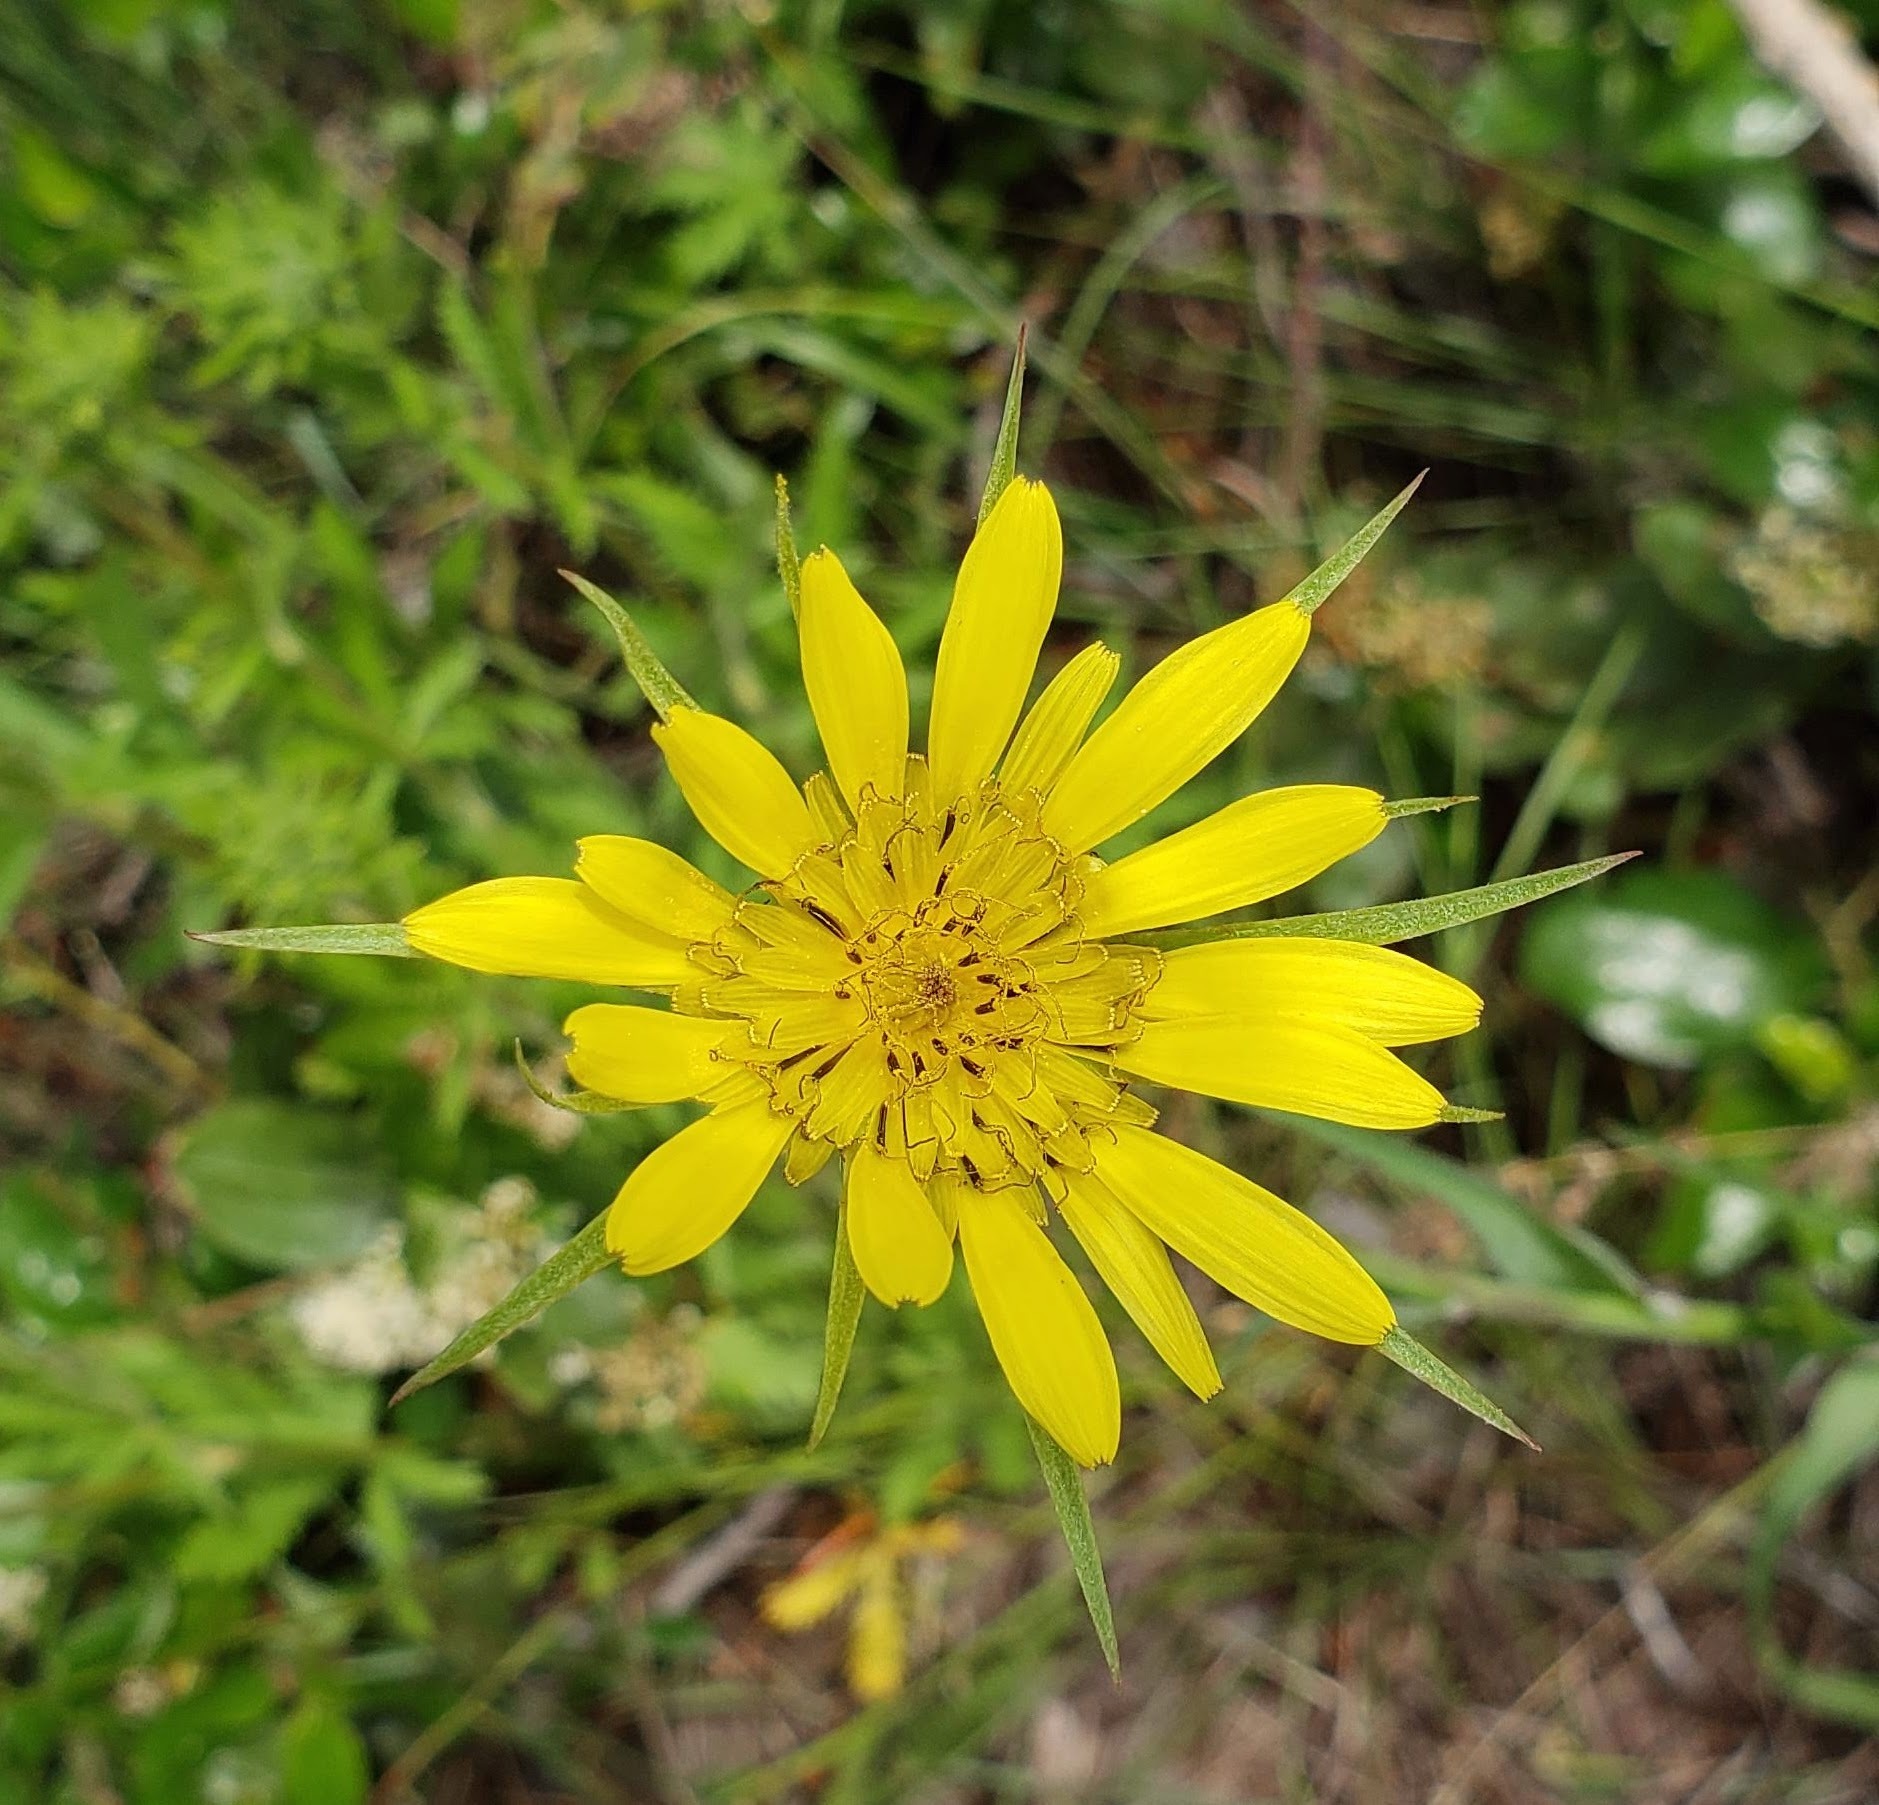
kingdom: Plantae
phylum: Tracheophyta
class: Magnoliopsida
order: Asterales
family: Asteraceae
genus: Tragopogon
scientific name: Tragopogon dubius
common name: Yellow salsify
